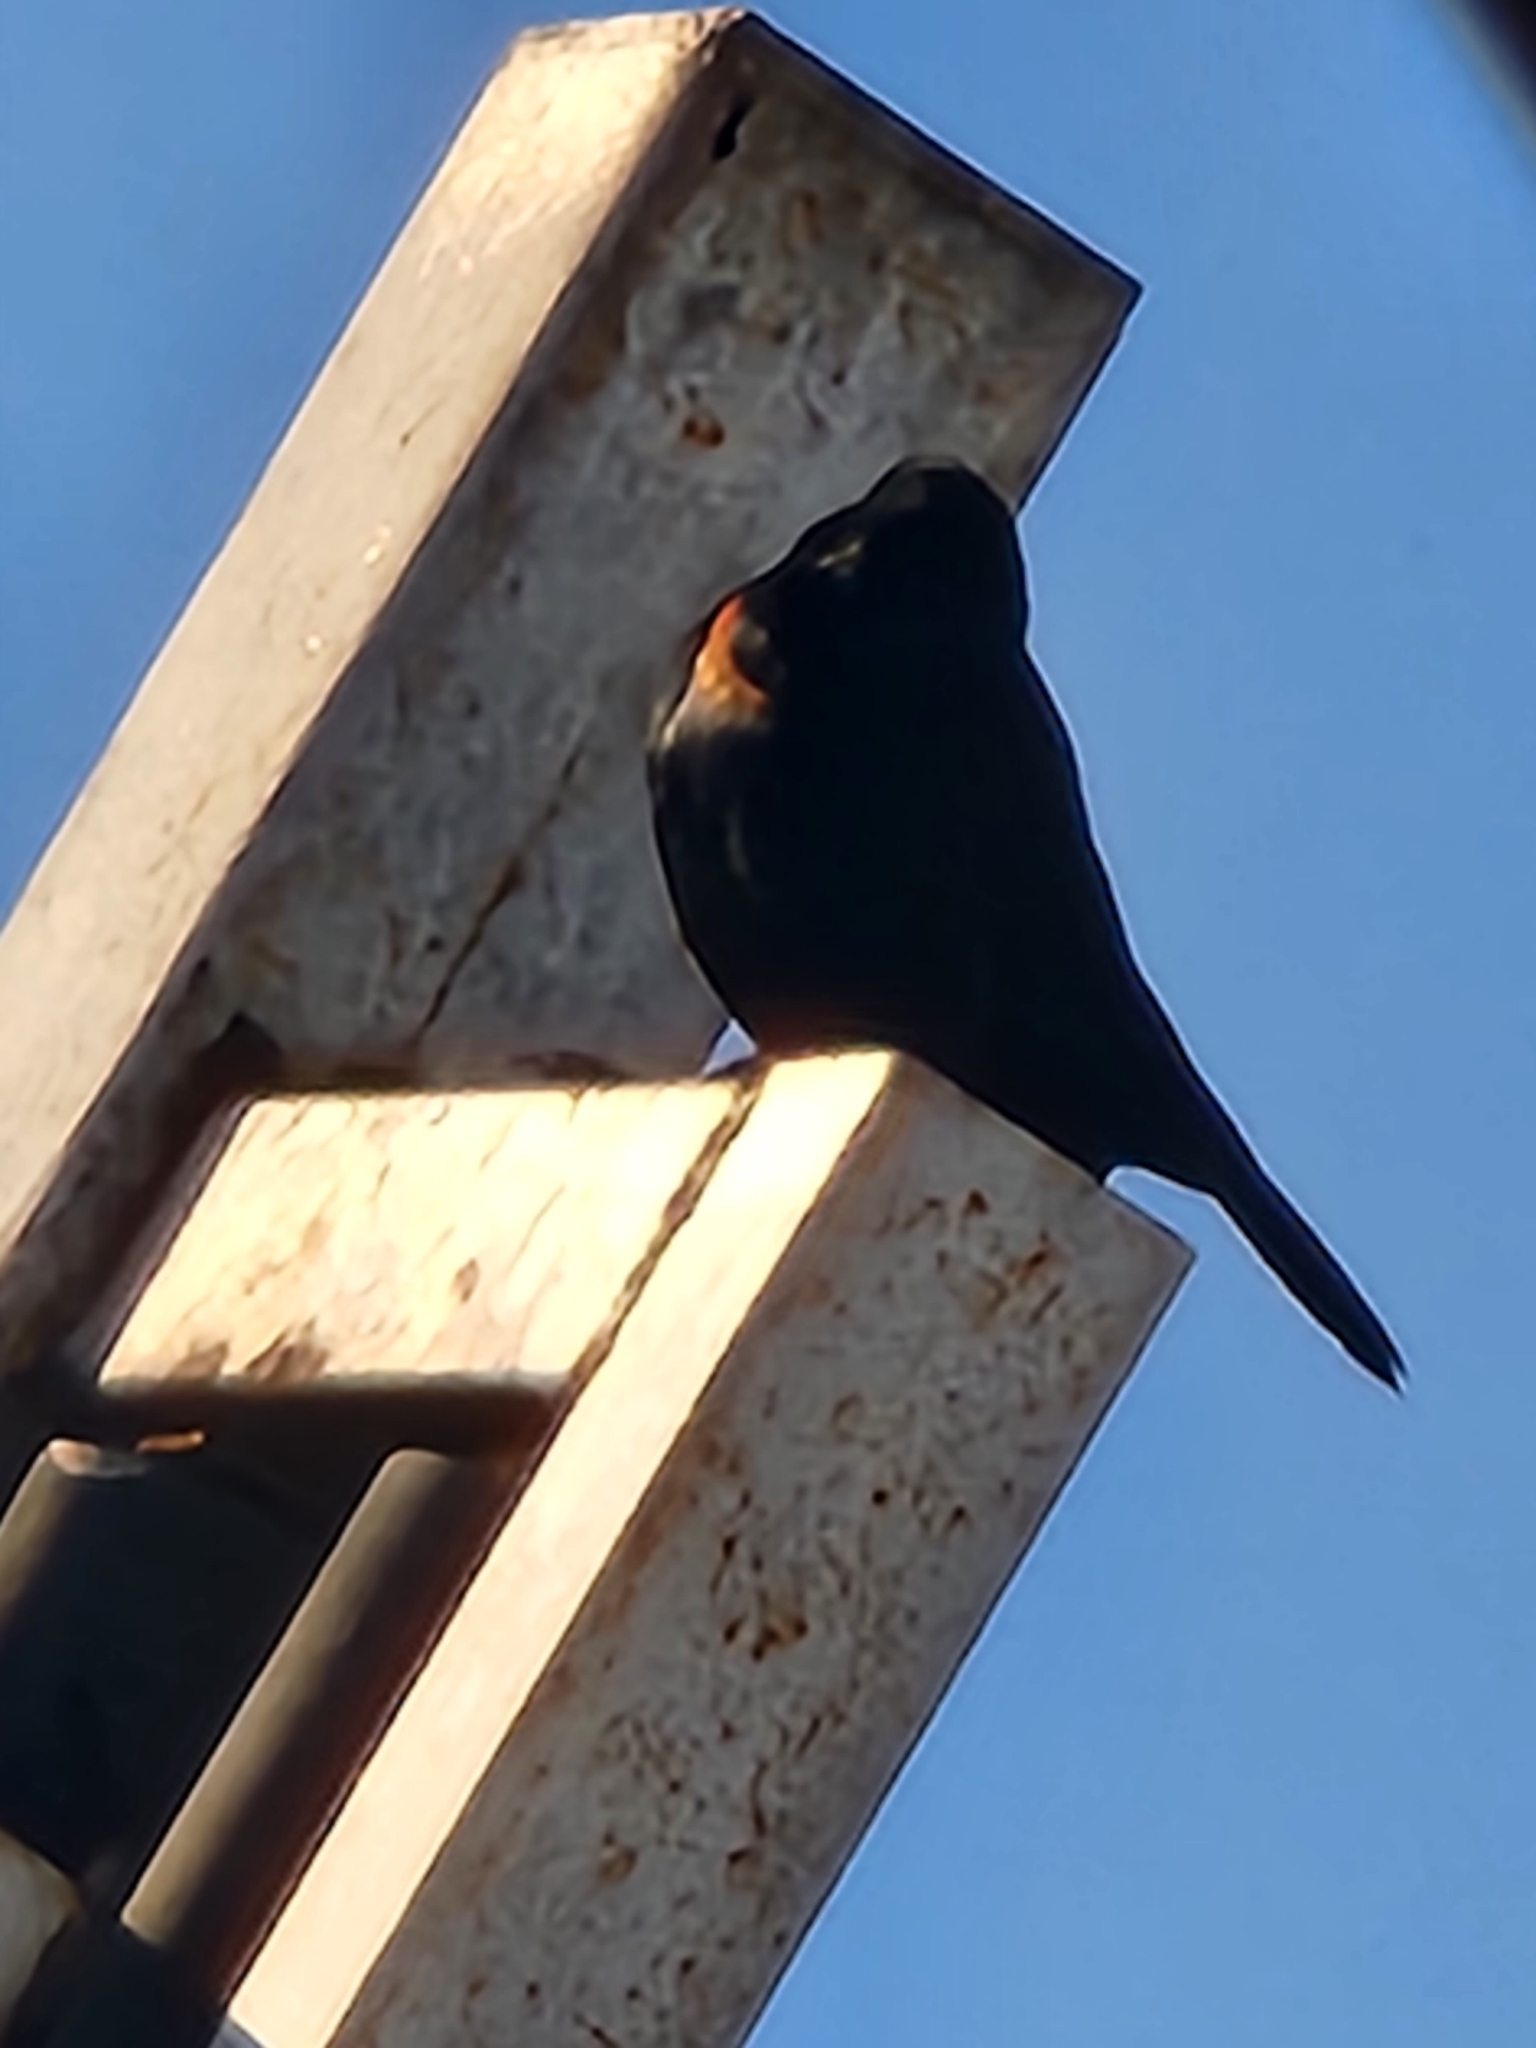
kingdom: Animalia
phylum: Chordata
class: Aves
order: Passeriformes
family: Icteridae
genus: Agelaius
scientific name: Agelaius phoeniceus
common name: Red-winged blackbird
